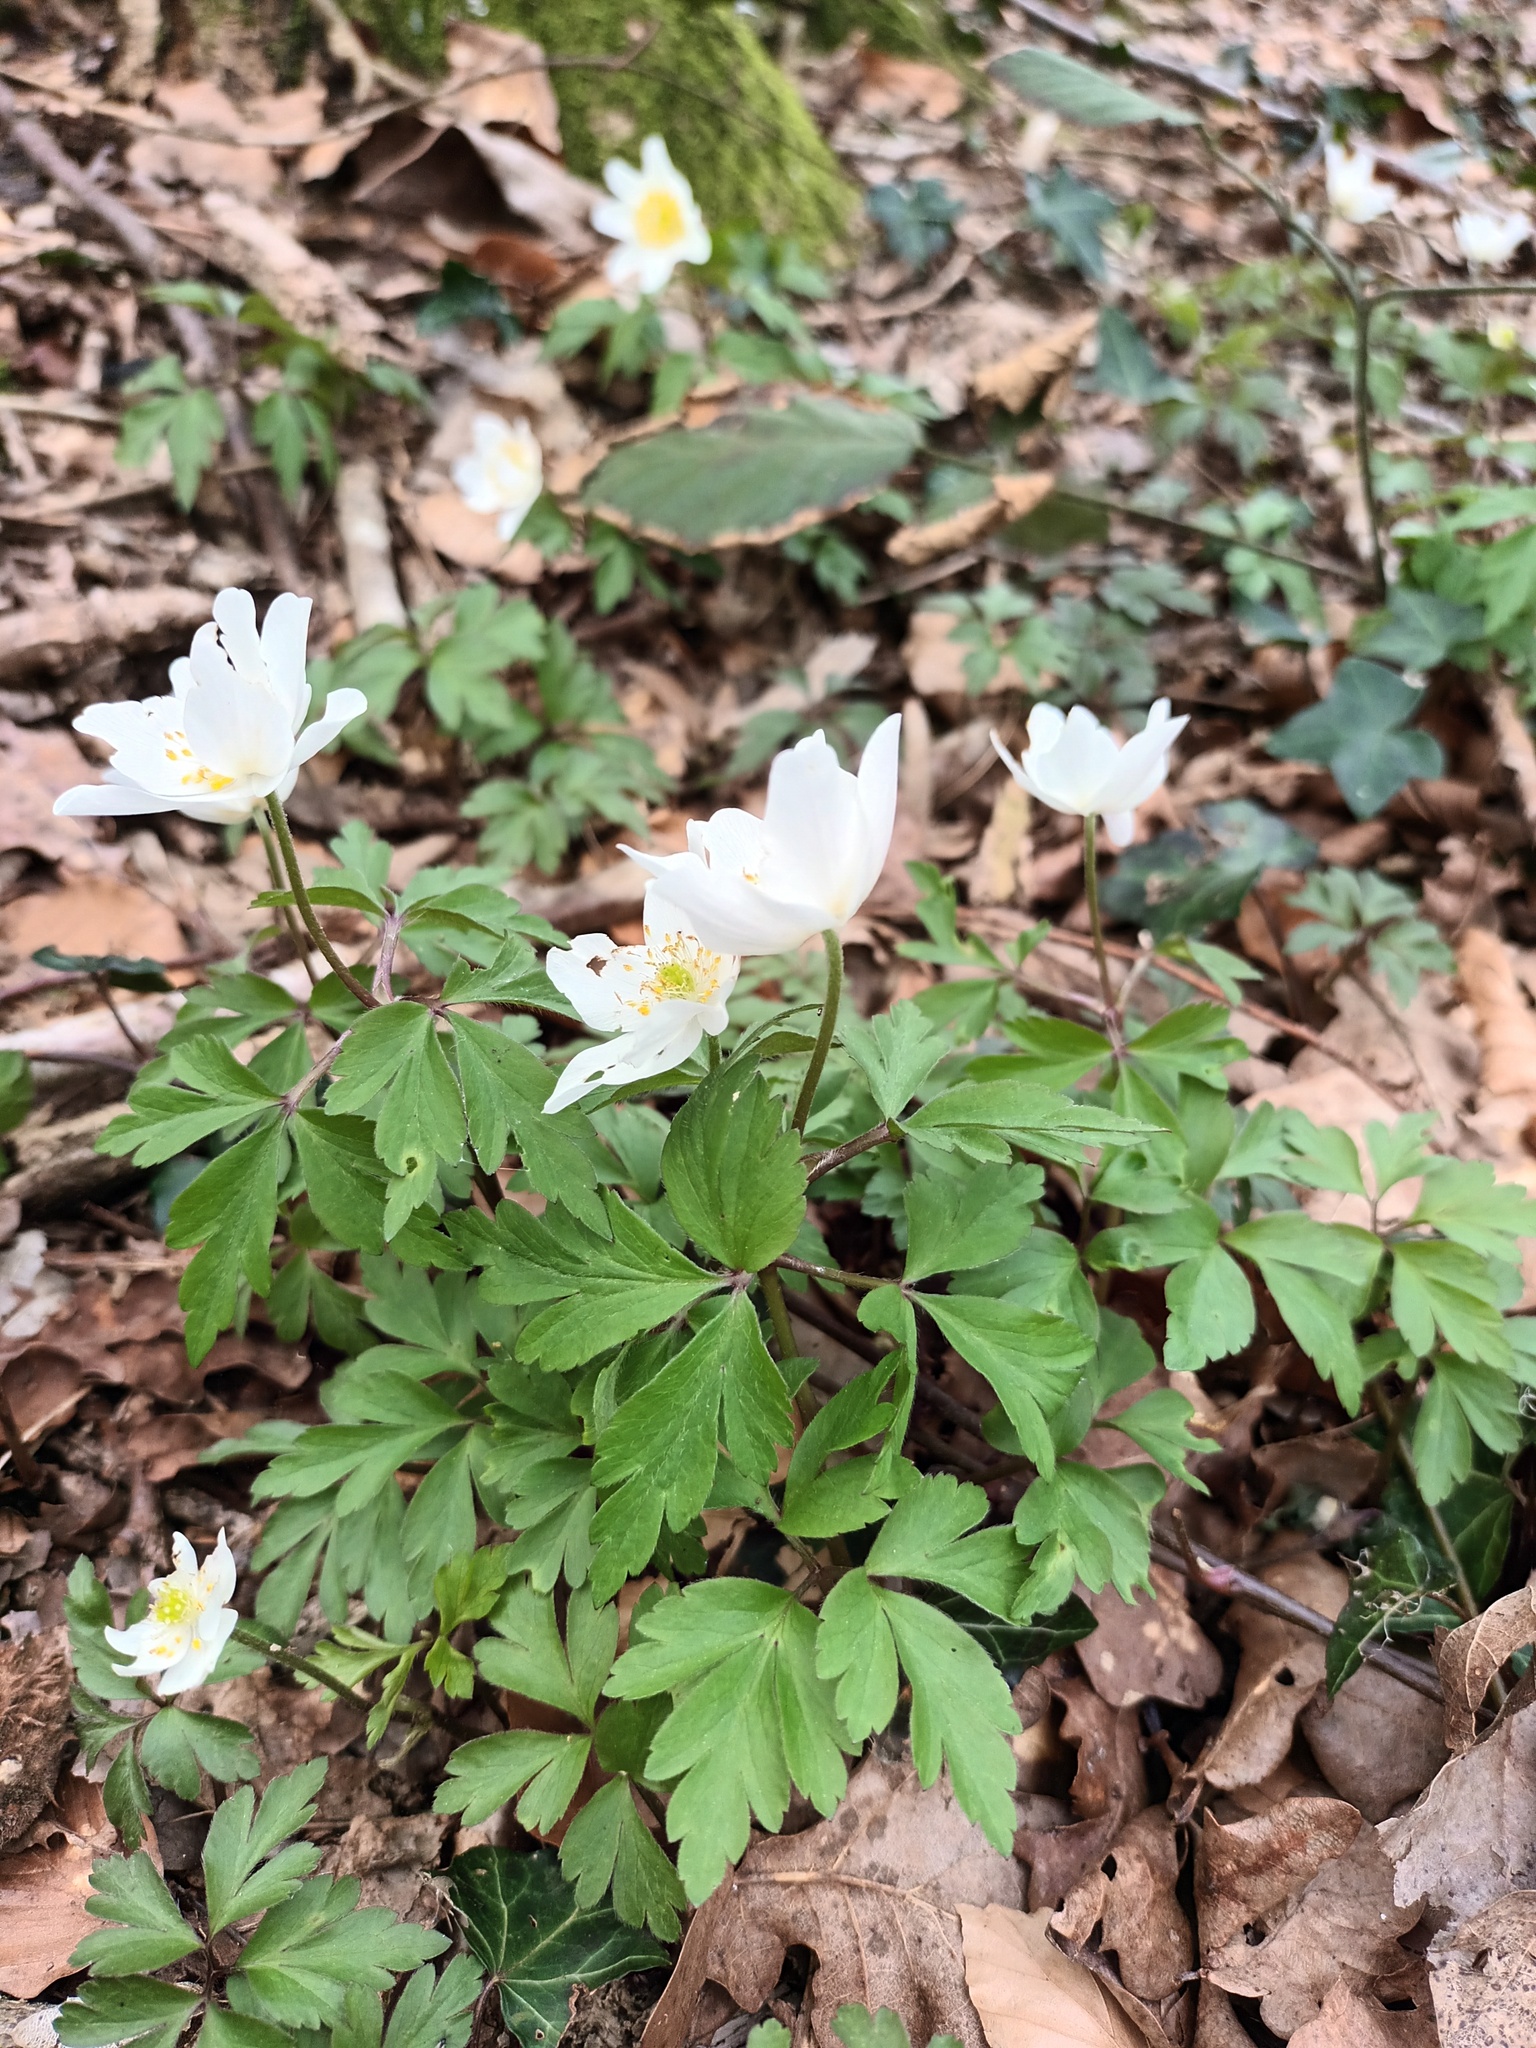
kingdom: Plantae
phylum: Tracheophyta
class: Magnoliopsida
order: Ranunculales
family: Ranunculaceae
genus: Anemone
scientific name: Anemone nemorosa
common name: Wood anemone
